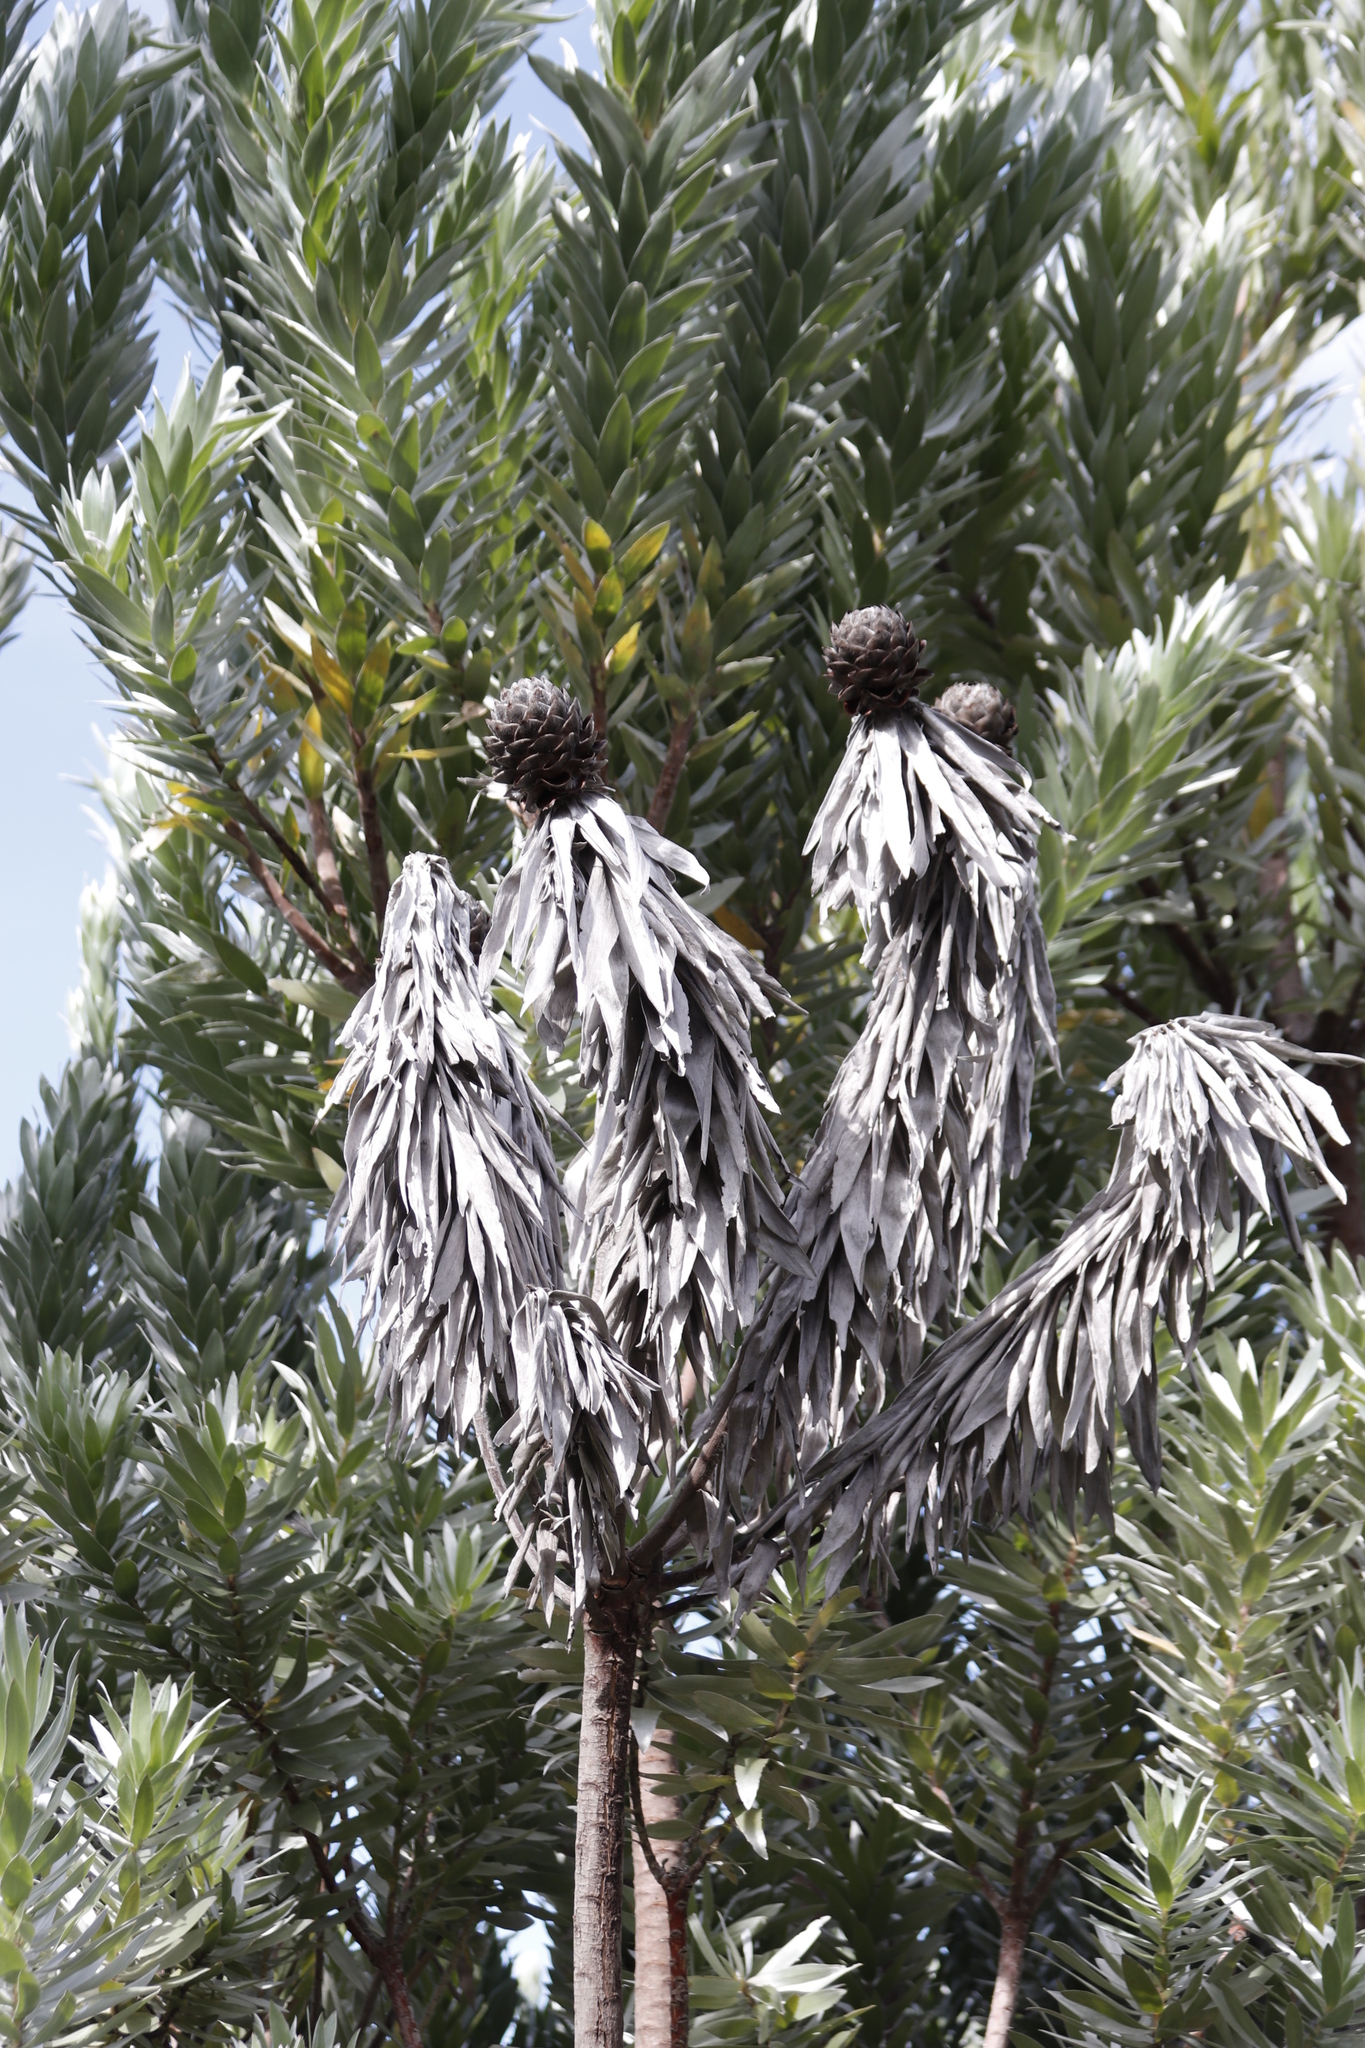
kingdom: Plantae
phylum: Tracheophyta
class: Magnoliopsida
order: Proteales
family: Proteaceae
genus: Leucadendron
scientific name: Leucadendron argenteum
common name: Cape silver tree
